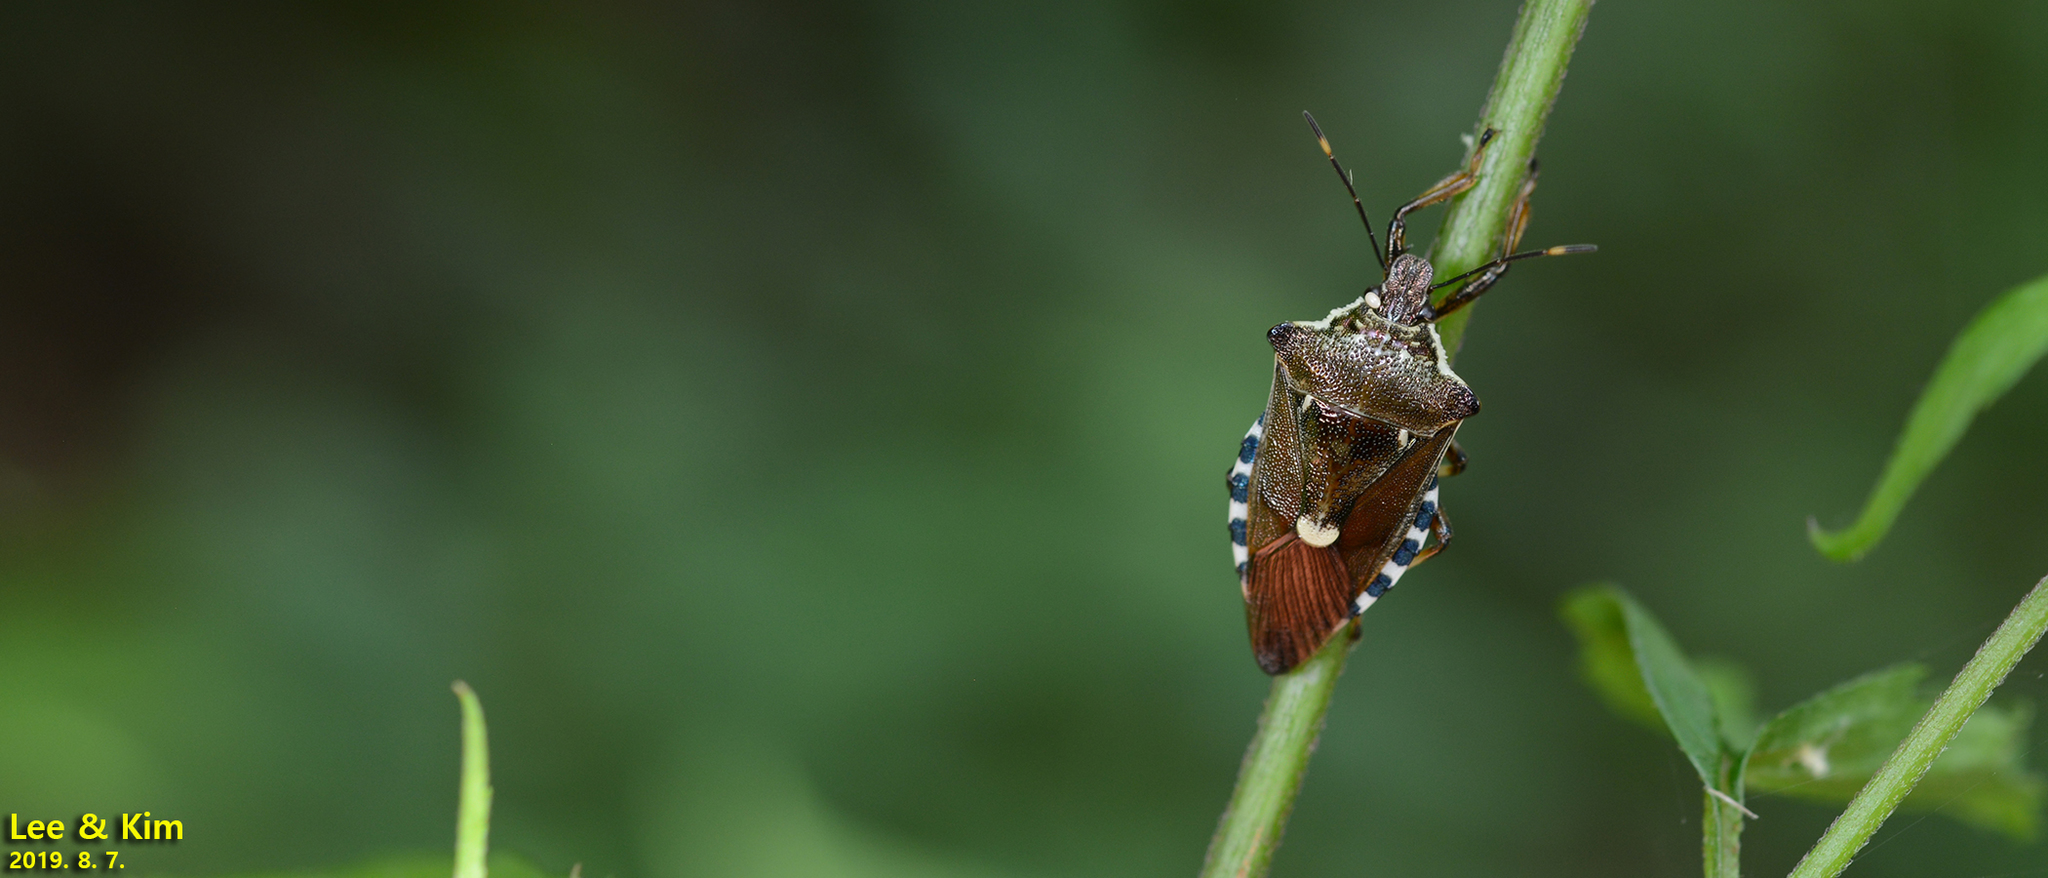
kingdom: Animalia
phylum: Arthropoda
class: Insecta
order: Hemiptera
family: Pentatomidae
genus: Pinthaeus
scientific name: Pinthaeus sanguinipes
